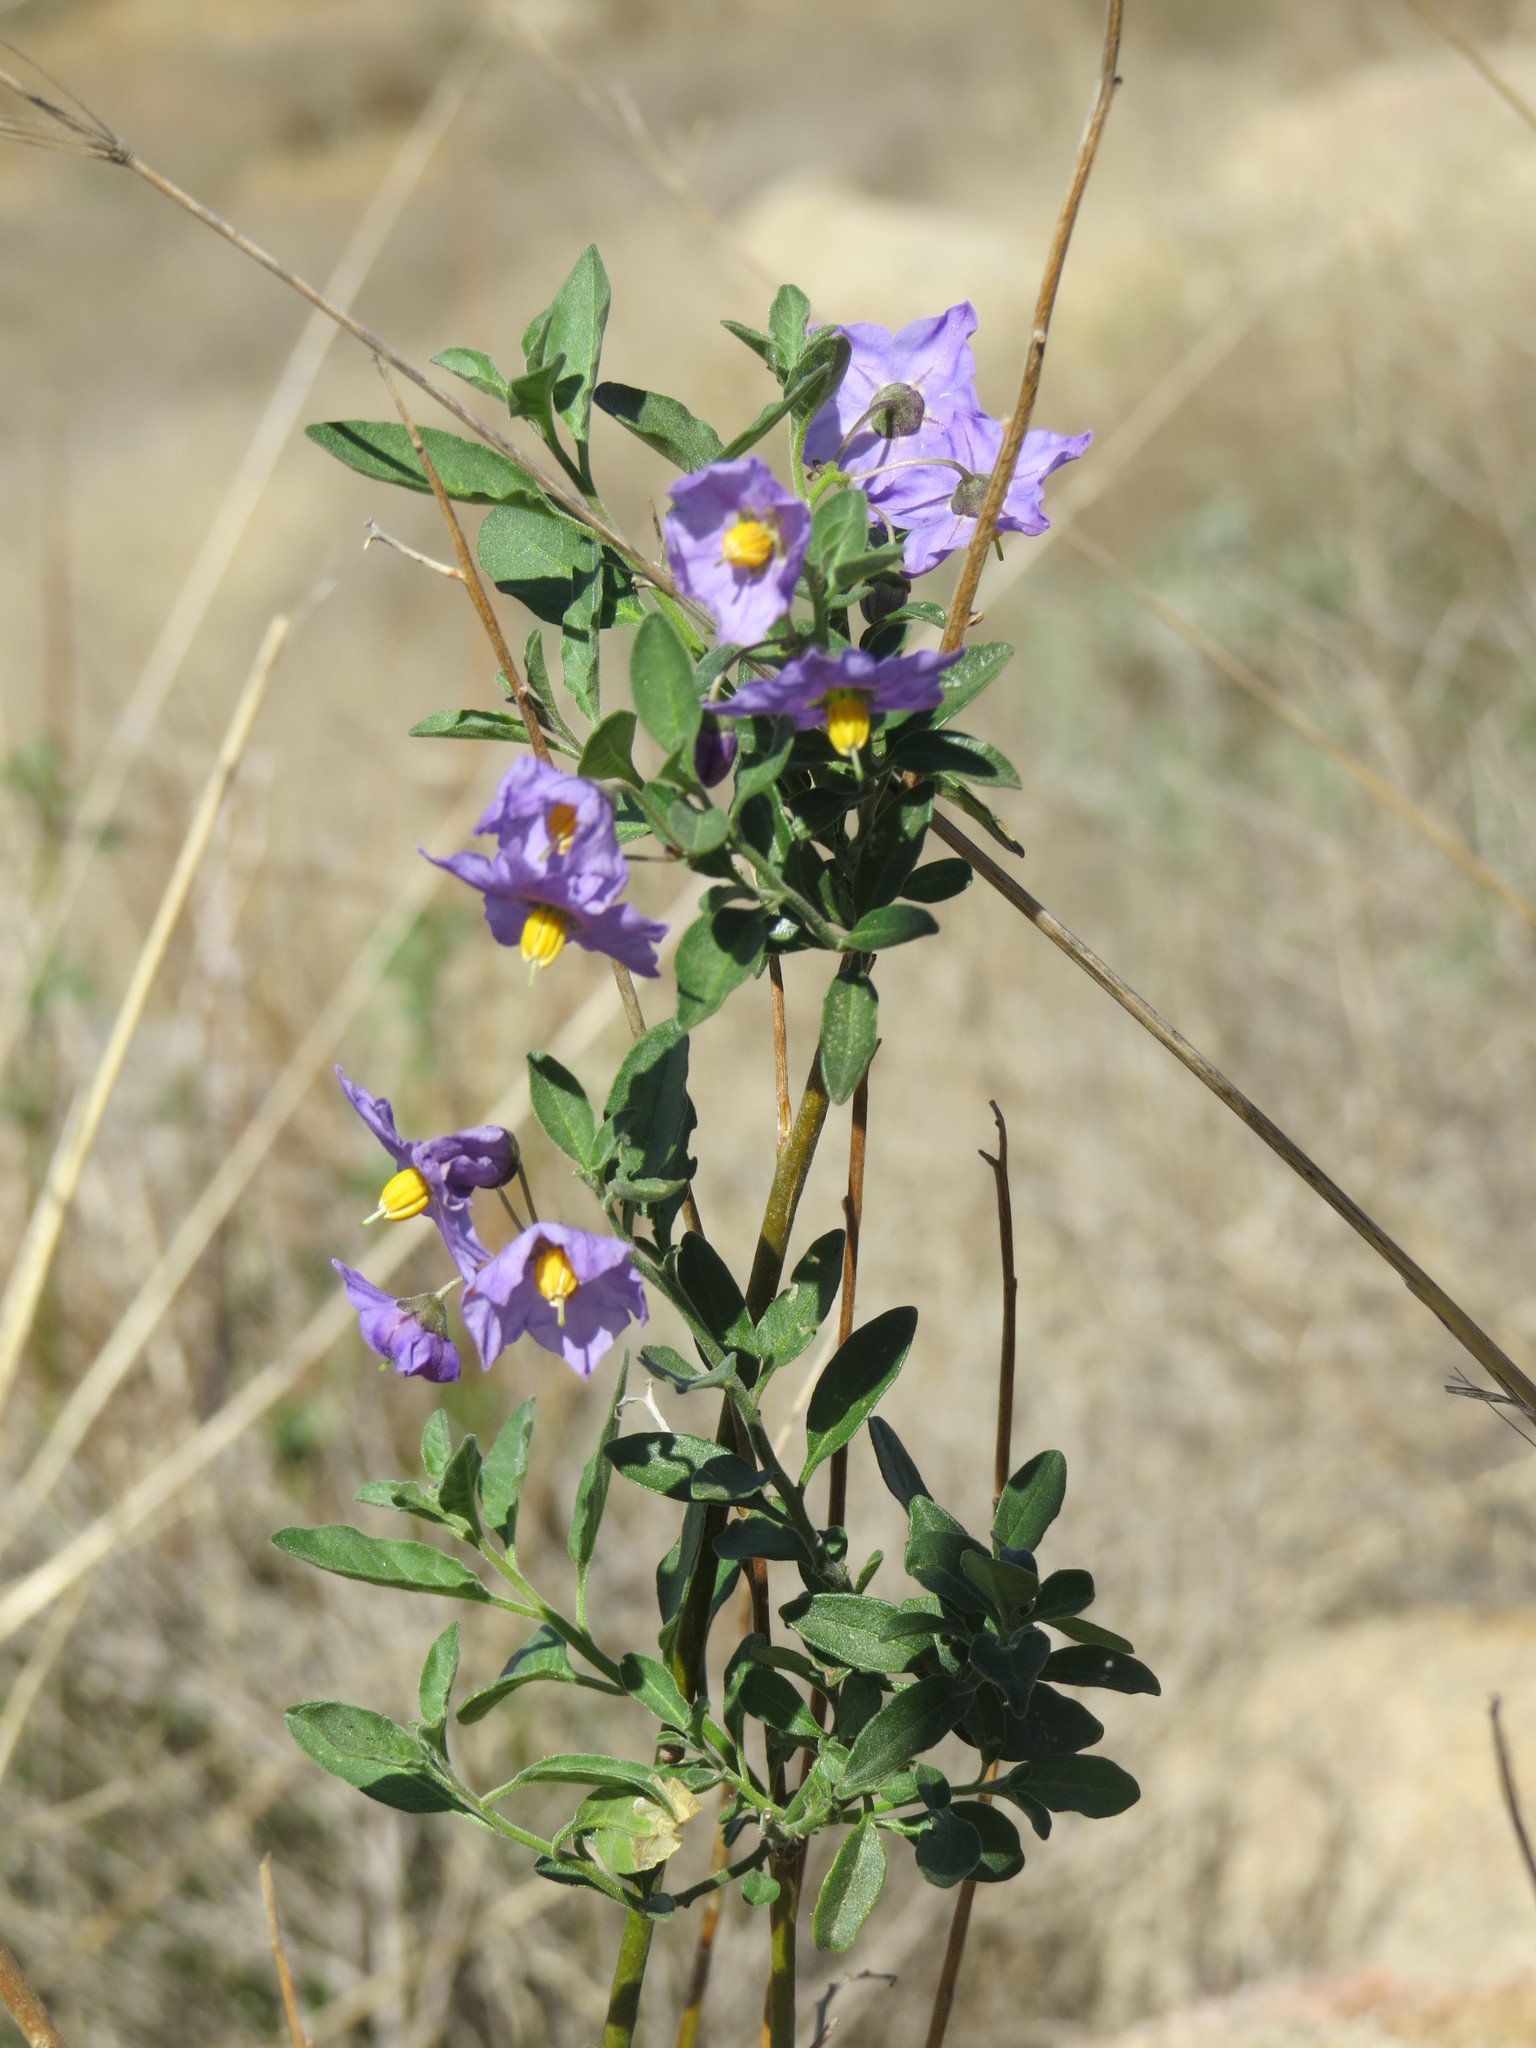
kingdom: Plantae
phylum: Tracheophyta
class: Magnoliopsida
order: Solanales
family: Solanaceae
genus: Solanum
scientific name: Solanum umbelliferum
